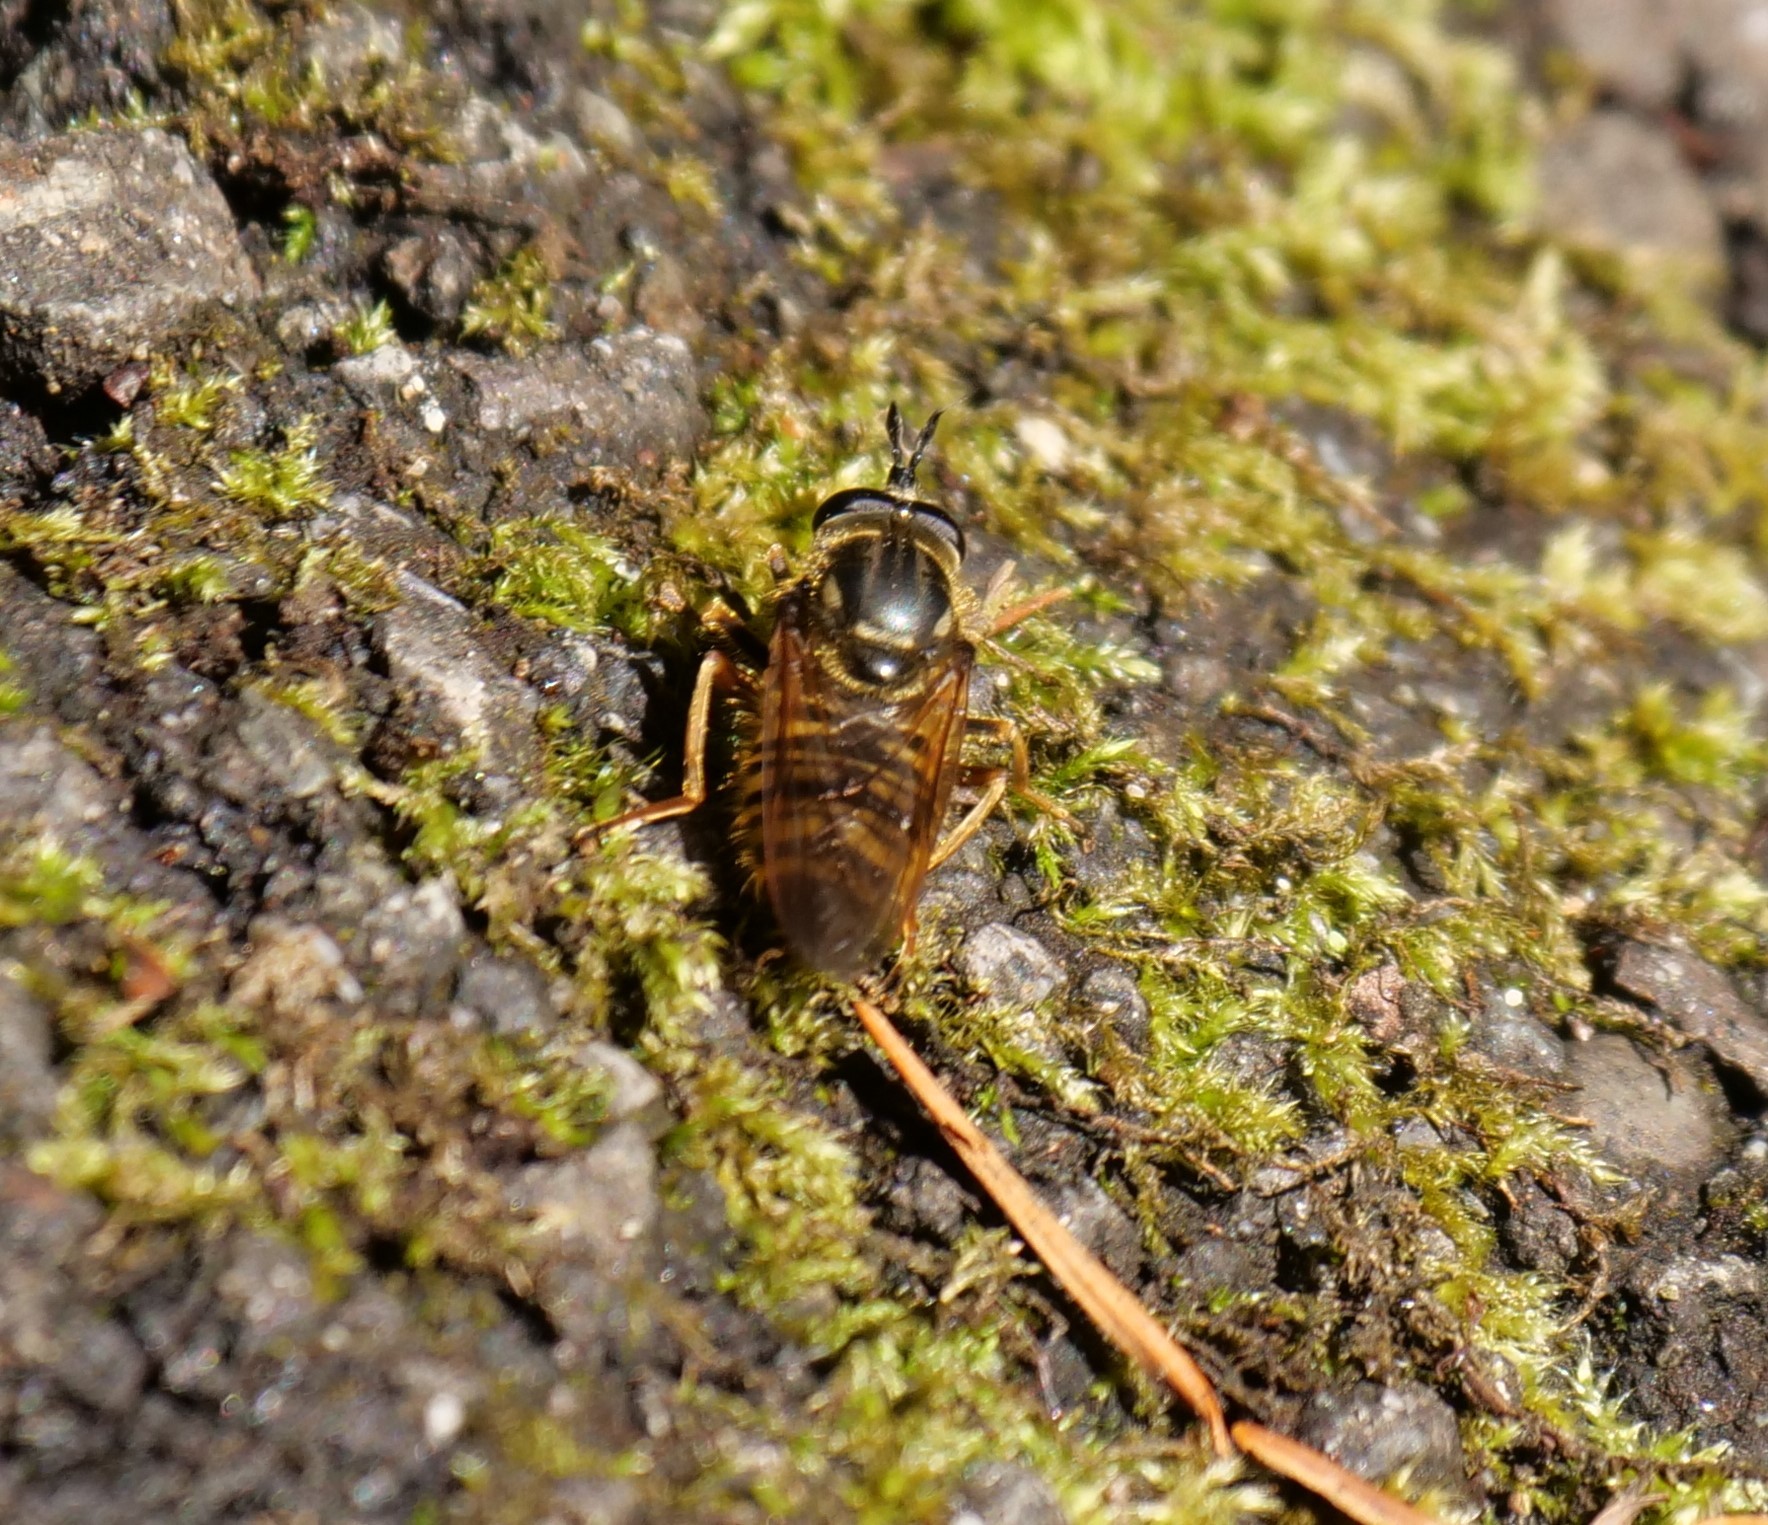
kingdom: Animalia
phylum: Arthropoda
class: Insecta
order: Diptera
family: Syrphidae
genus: Criorhina
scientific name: Criorhina occidentalis
